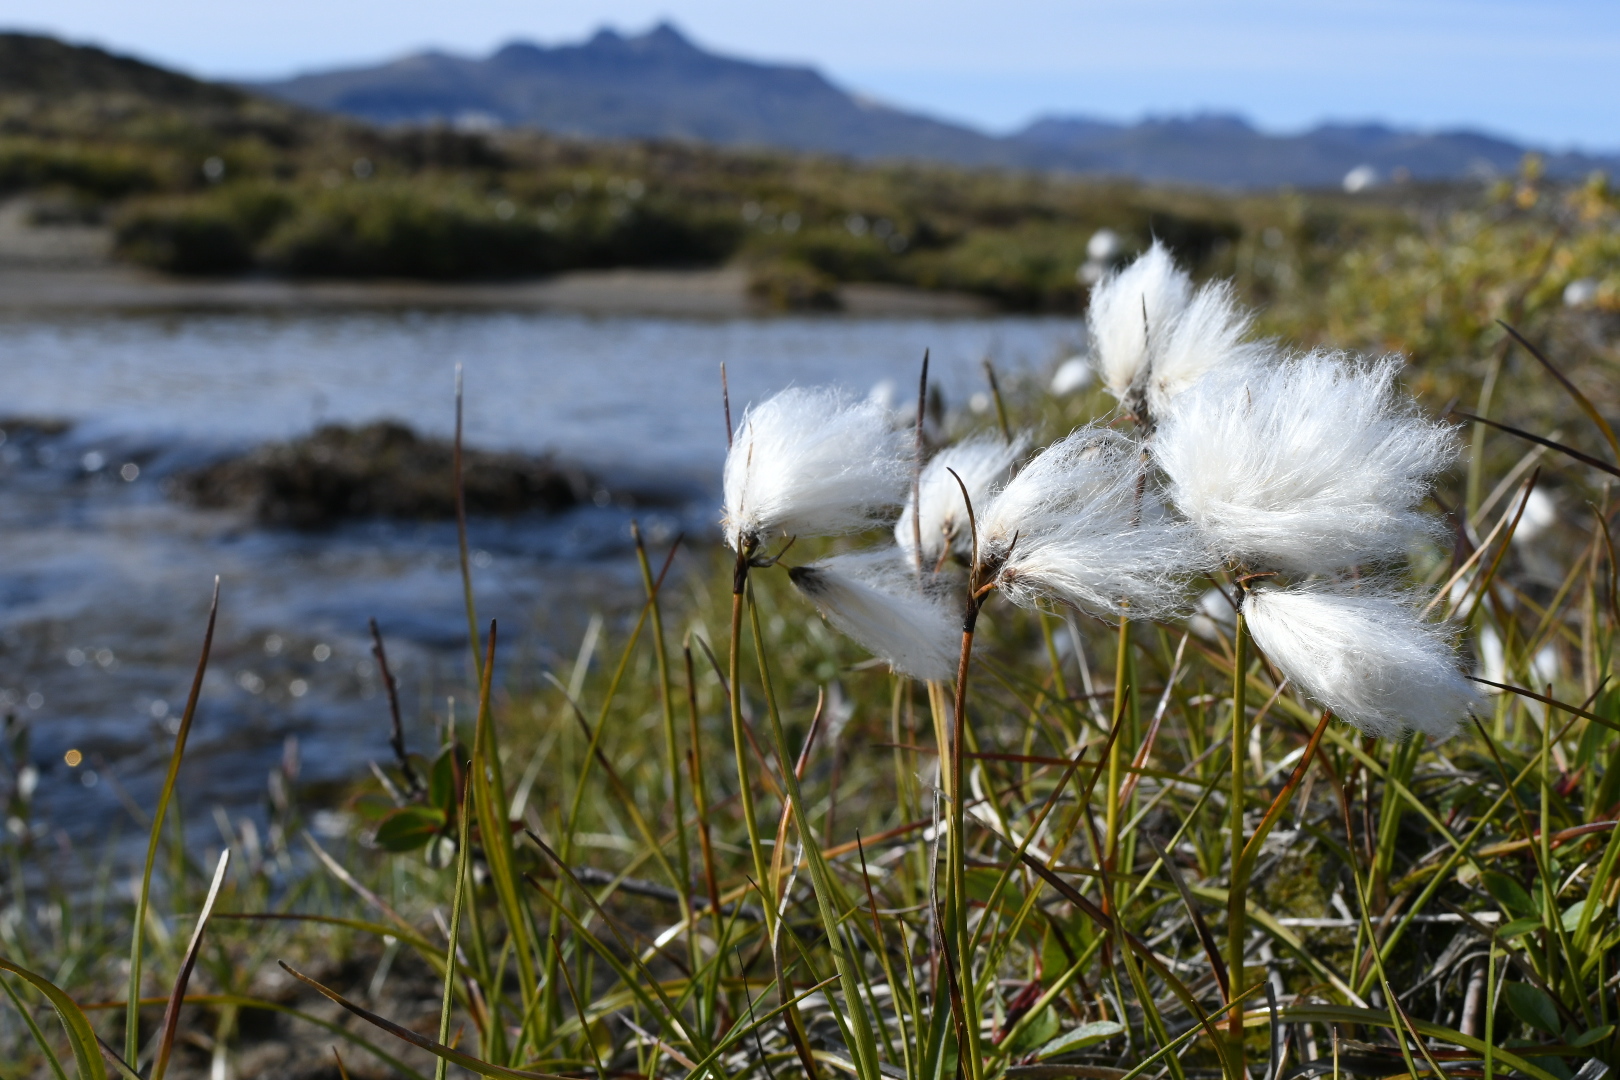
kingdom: Plantae
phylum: Tracheophyta
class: Liliopsida
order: Poales
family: Cyperaceae
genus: Eriophorum
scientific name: Eriophorum angustifolium
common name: Common cottongrass
